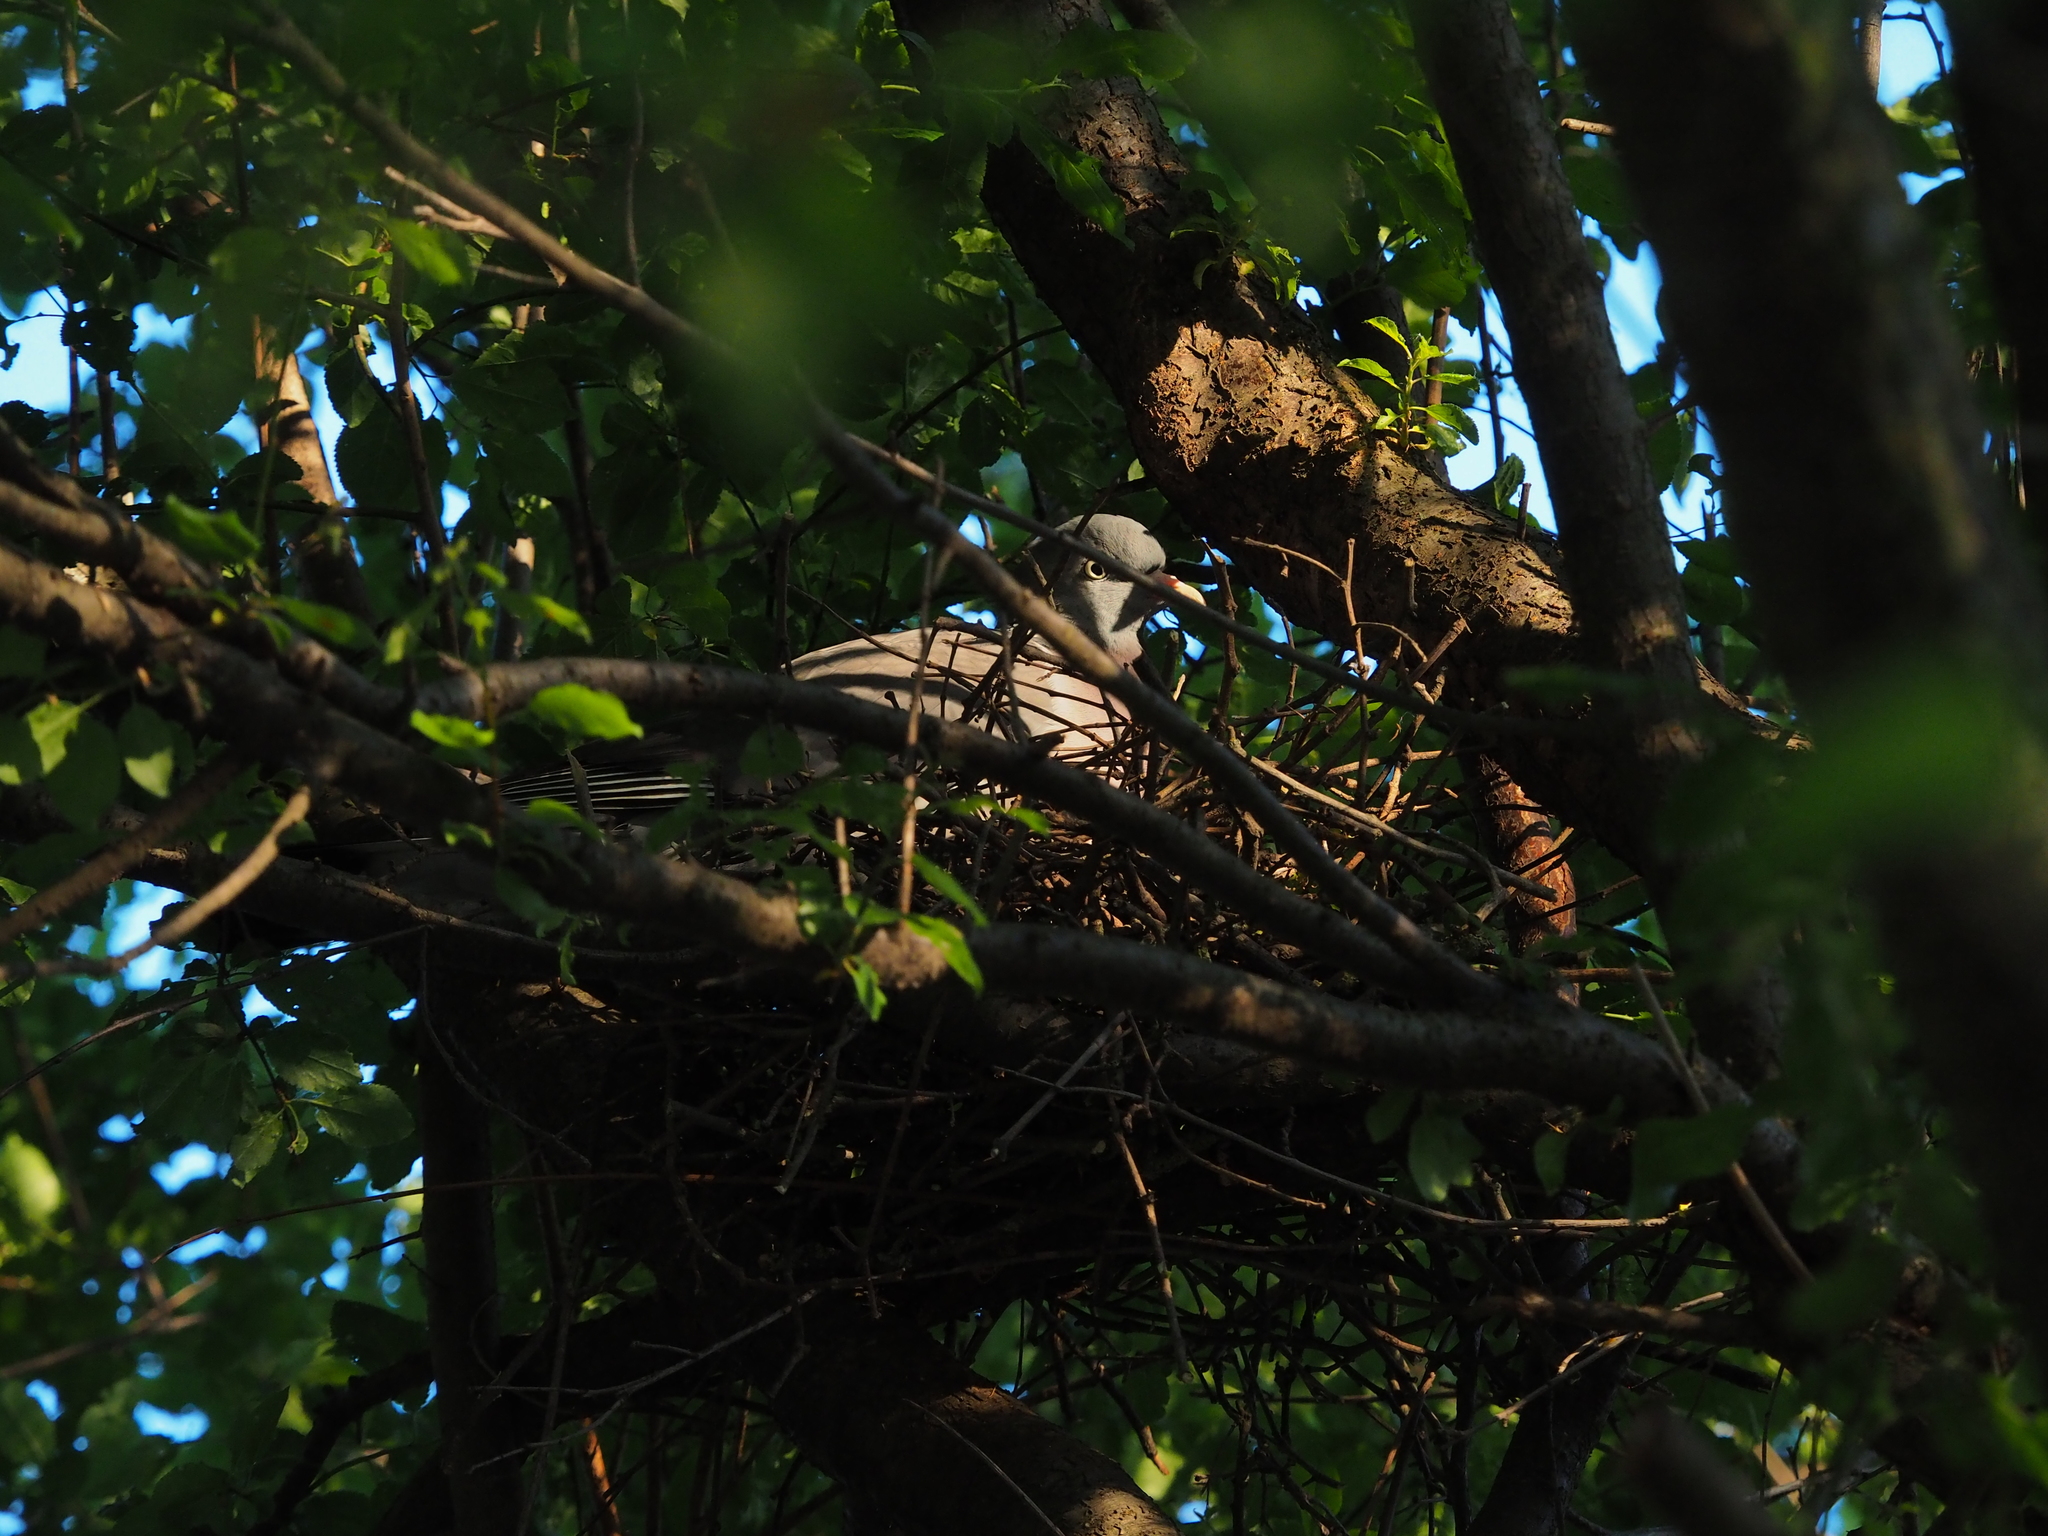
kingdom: Animalia
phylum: Chordata
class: Aves
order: Columbiformes
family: Columbidae
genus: Columba
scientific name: Columba palumbus
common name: Common wood pigeon
